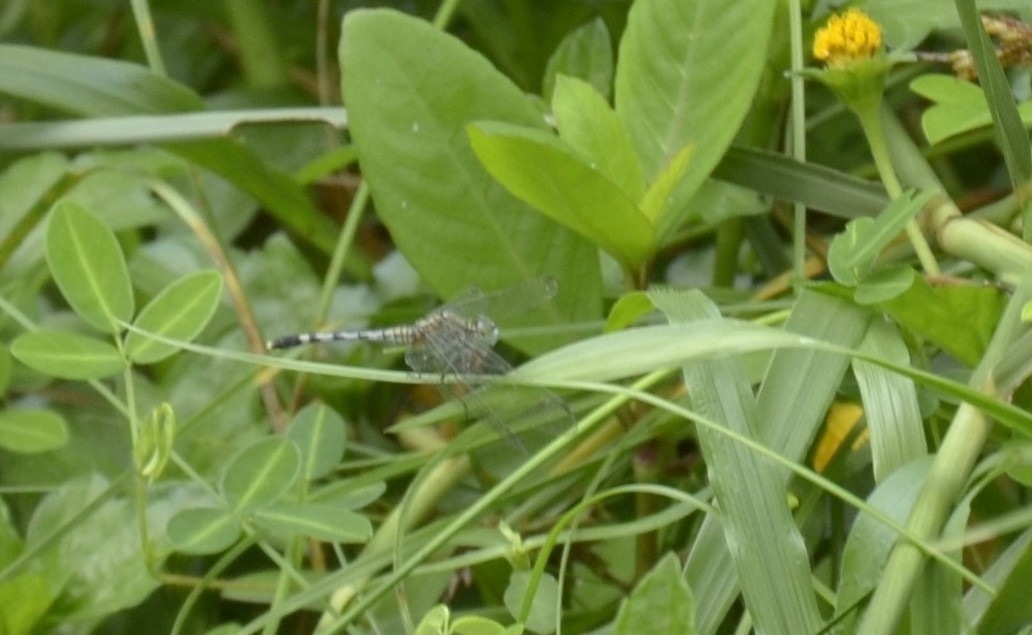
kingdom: Animalia
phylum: Arthropoda
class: Insecta
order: Odonata
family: Libellulidae
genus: Diplacodes
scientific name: Diplacodes trivialis
